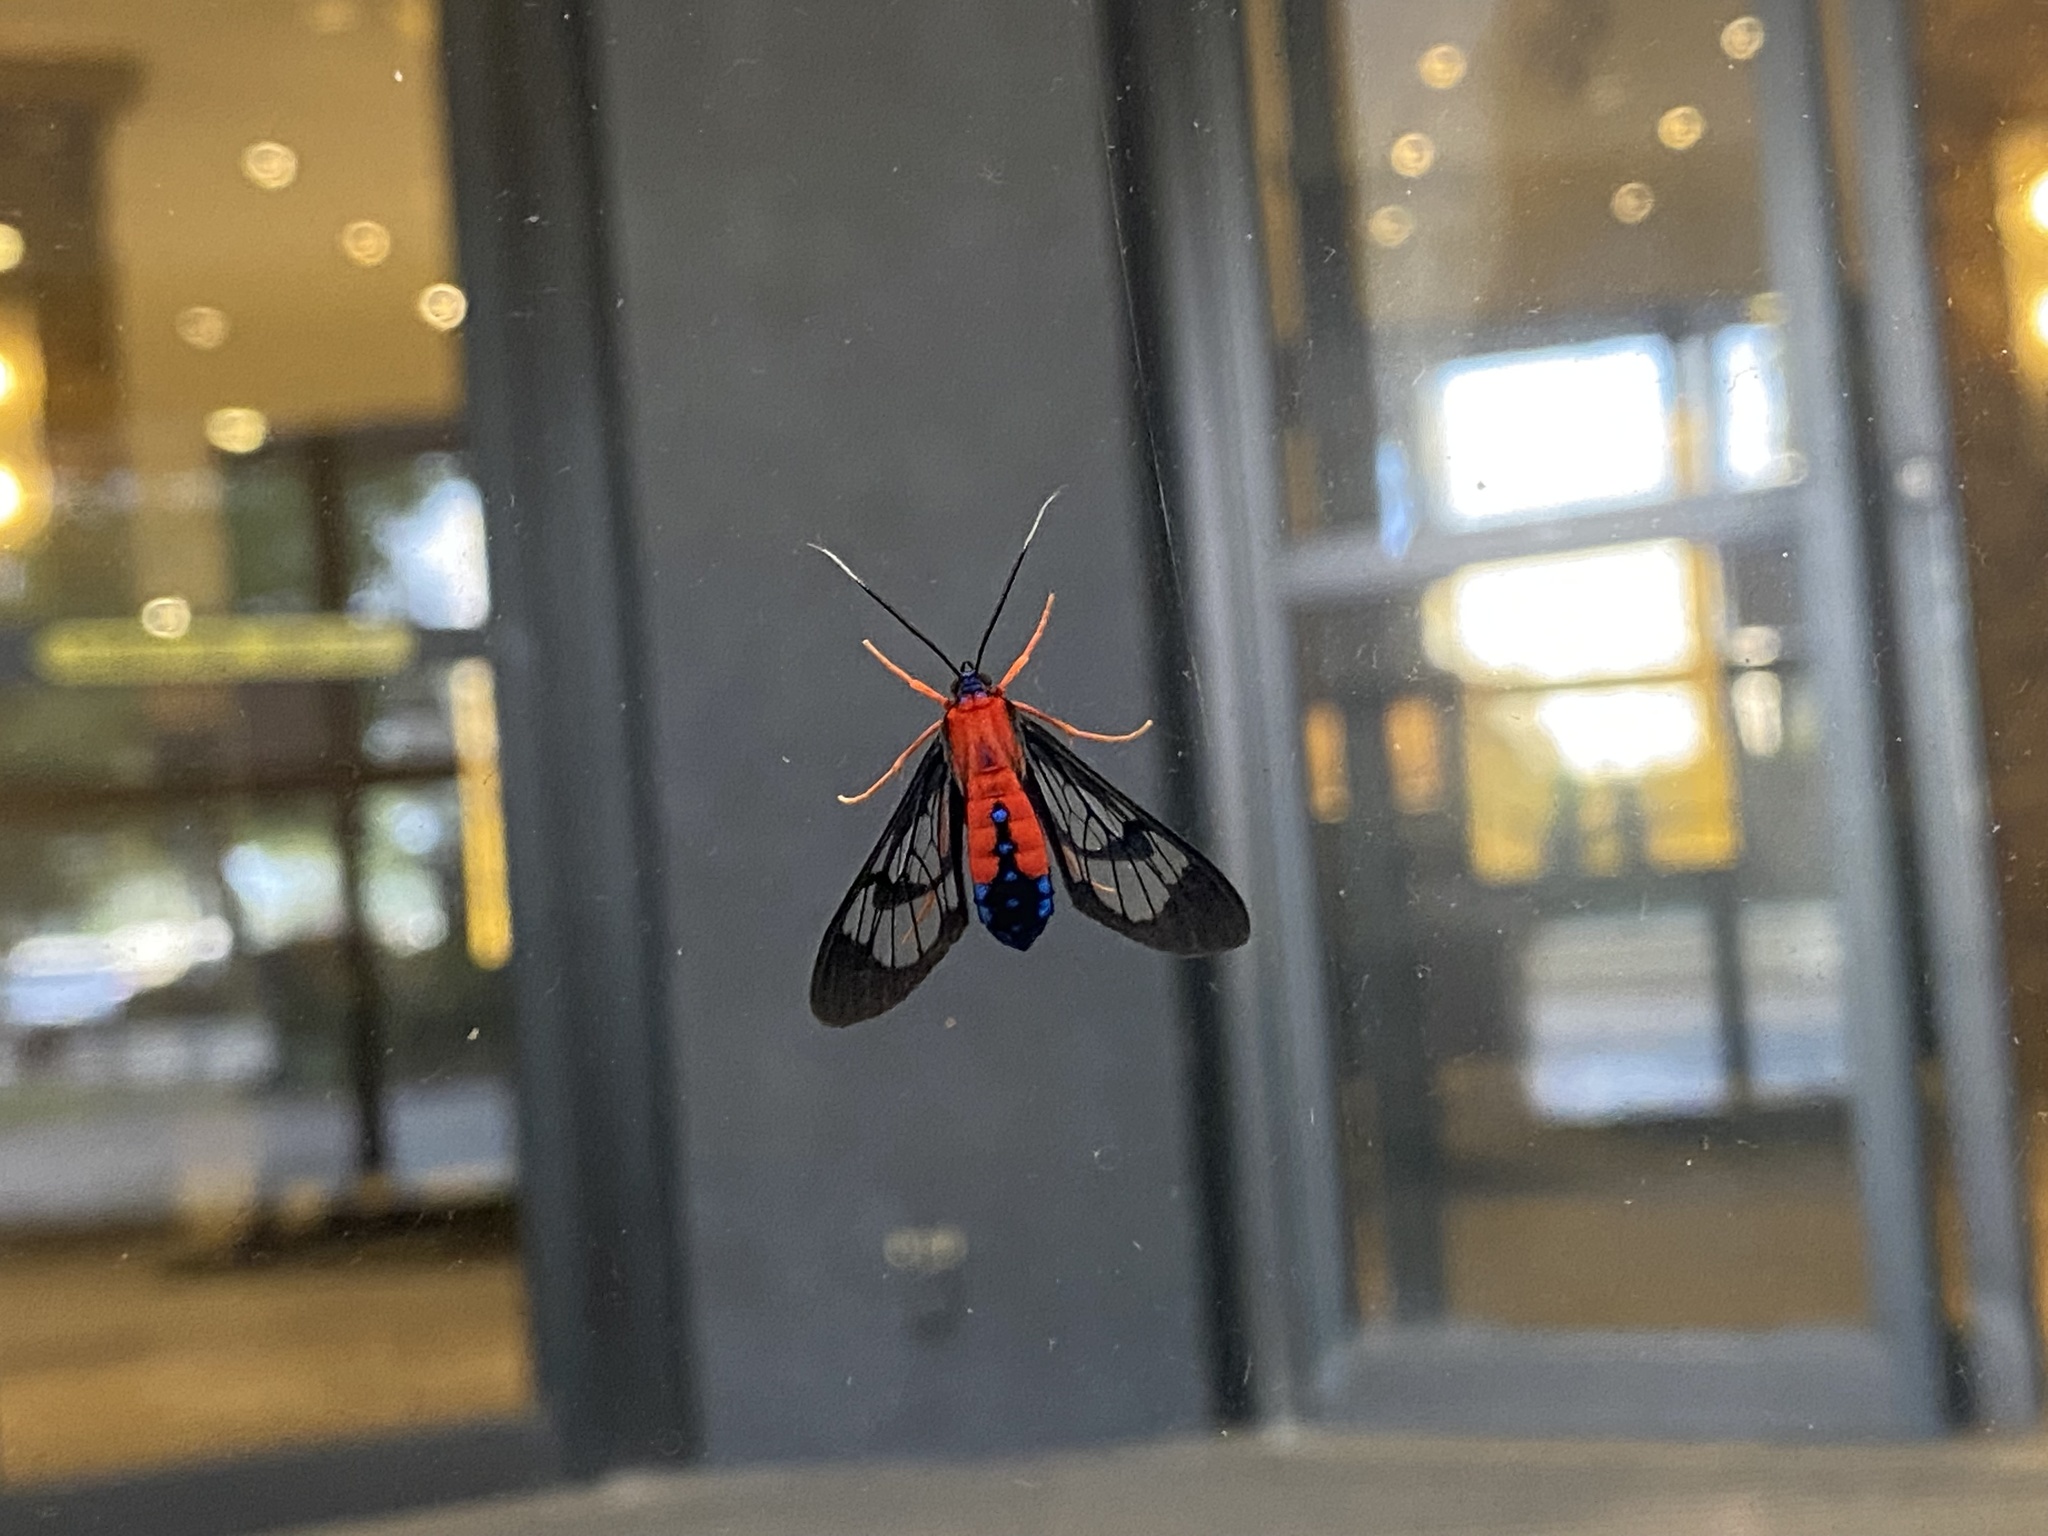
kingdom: Animalia
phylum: Arthropoda
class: Insecta
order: Lepidoptera
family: Erebidae
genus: Cosmosoma
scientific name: Cosmosoma myrodora
